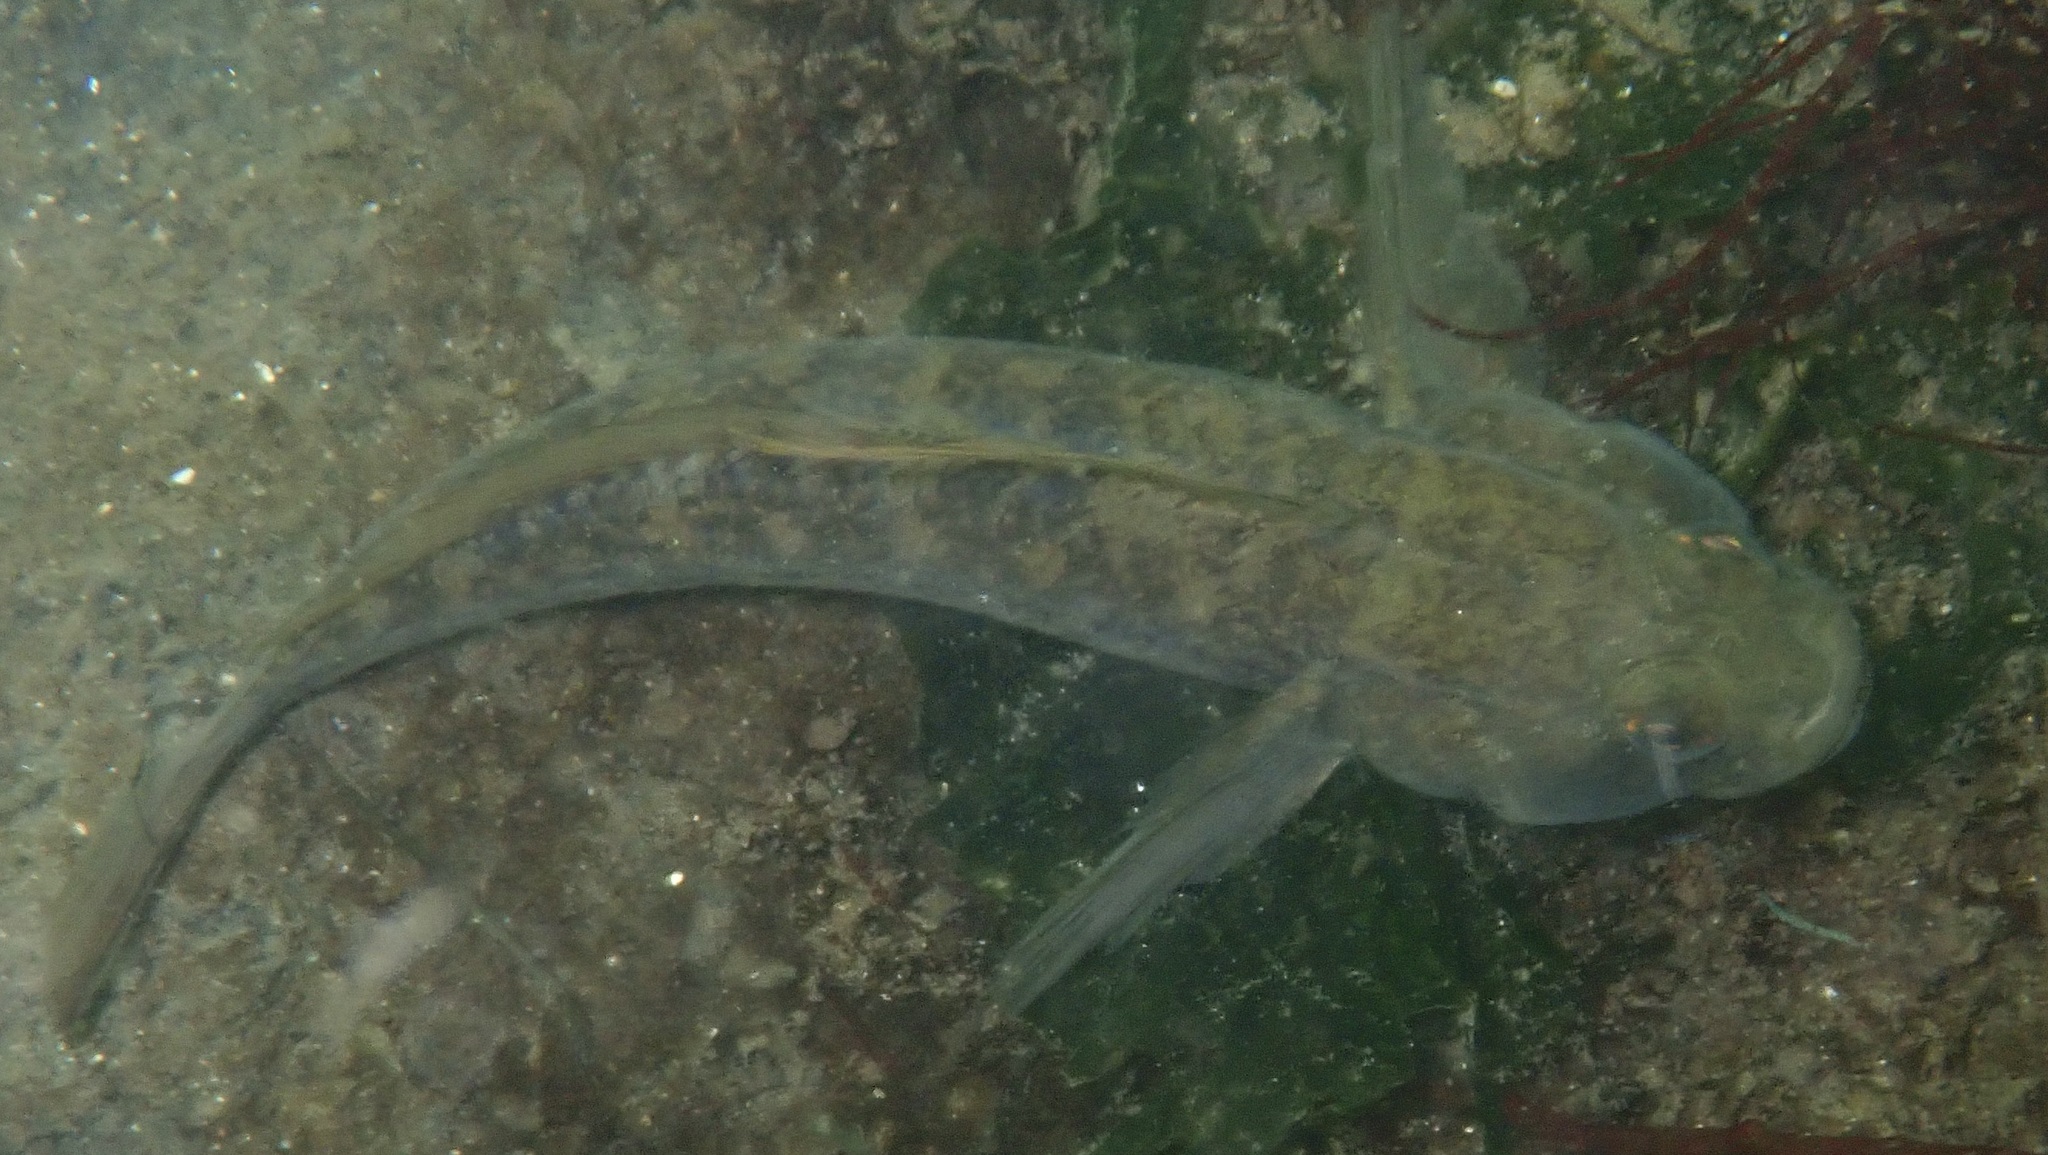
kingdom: Animalia
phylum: Chordata
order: Perciformes
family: Gobiidae
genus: Gobius
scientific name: Gobius niger
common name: Black goby
